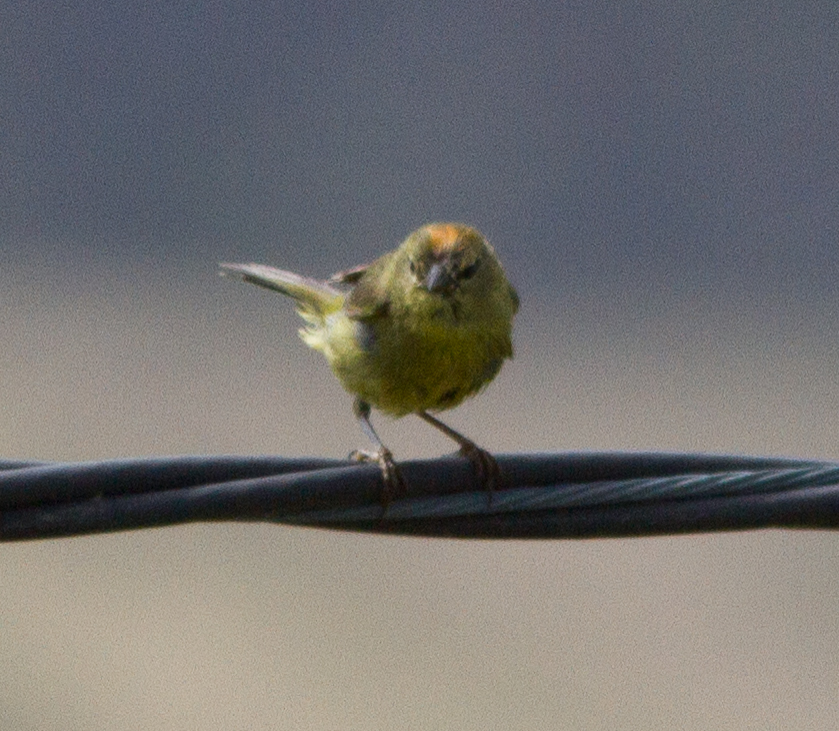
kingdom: Animalia
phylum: Chordata
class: Aves
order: Passeriformes
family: Parulidae
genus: Leiothlypis
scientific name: Leiothlypis celata
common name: Orange-crowned warbler
